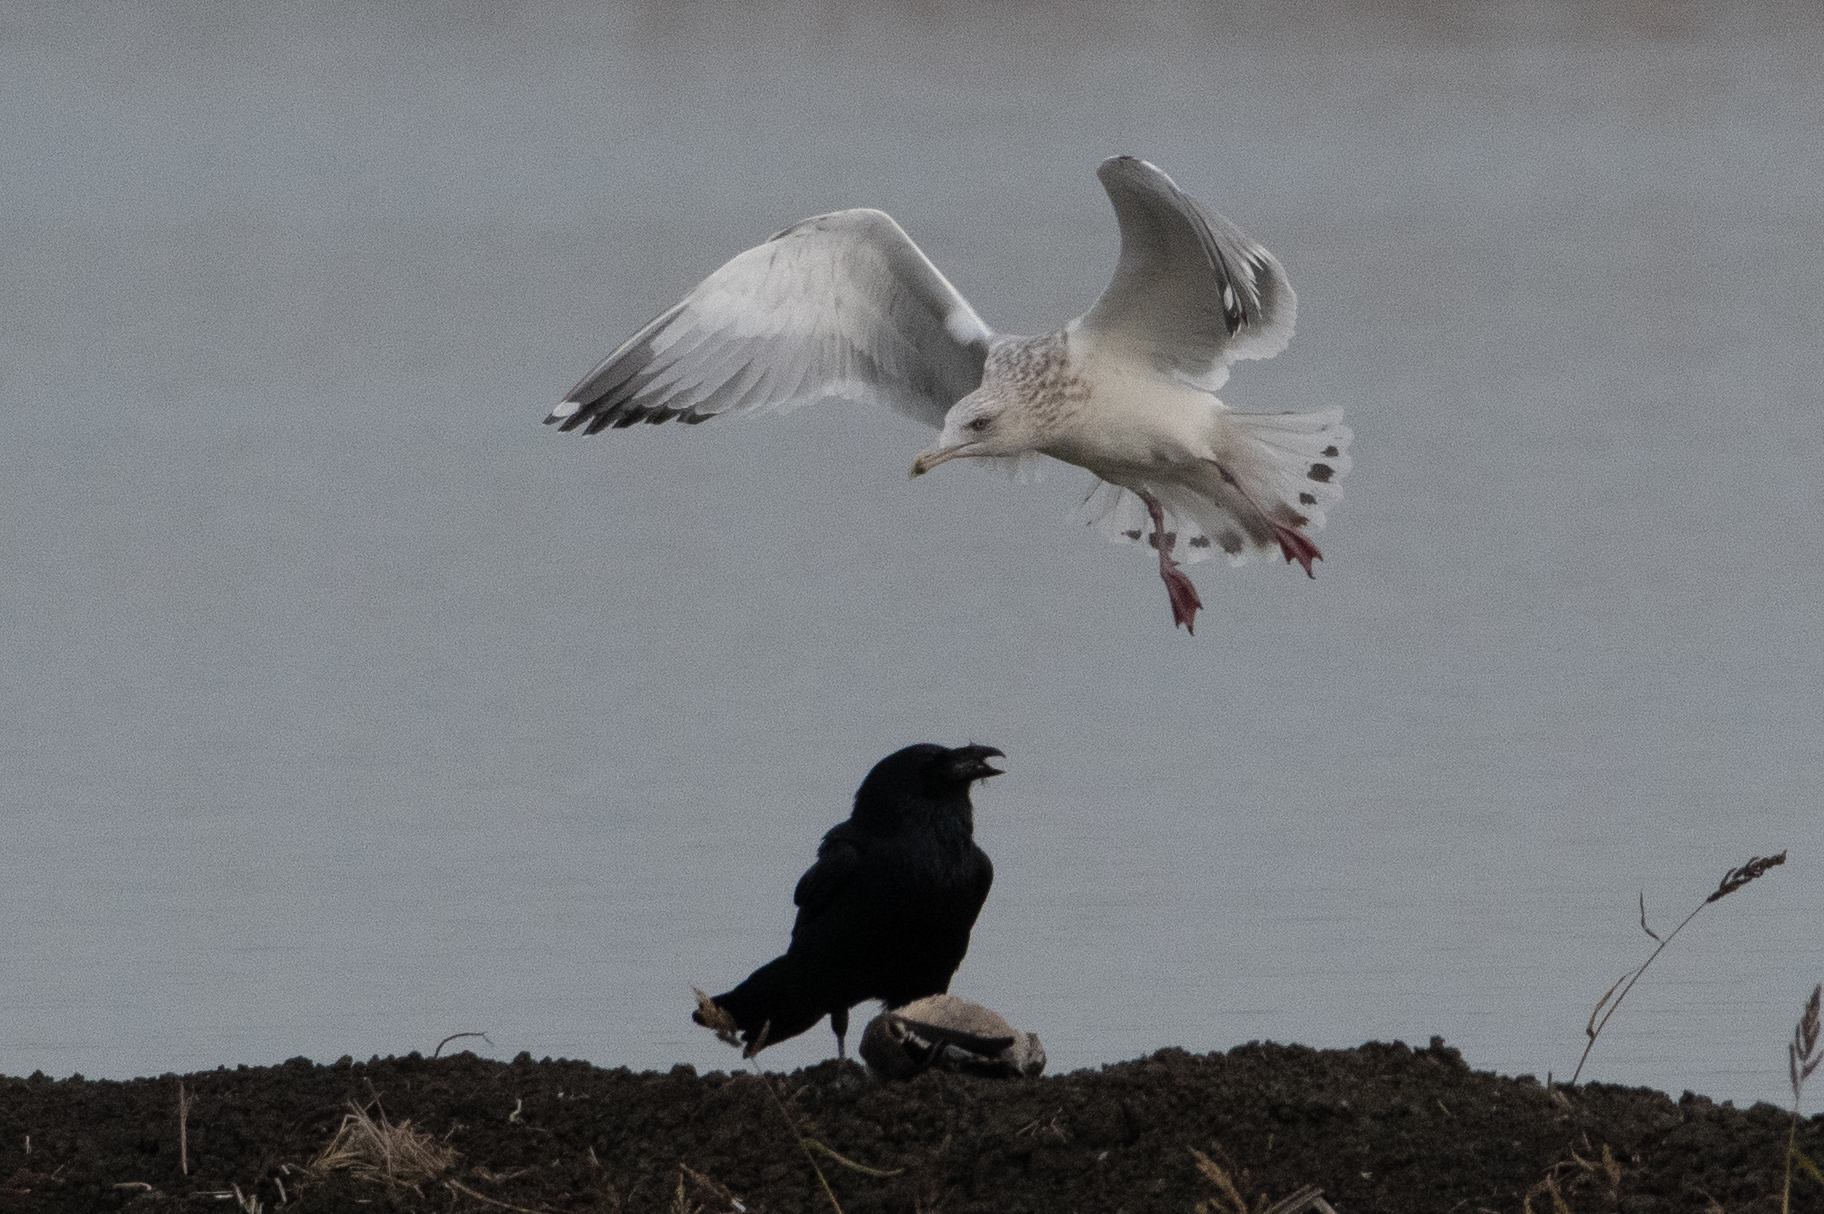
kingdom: Animalia
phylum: Chordata
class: Aves
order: Charadriiformes
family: Laridae
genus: Larus
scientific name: Larus argentatus
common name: Herring gull
